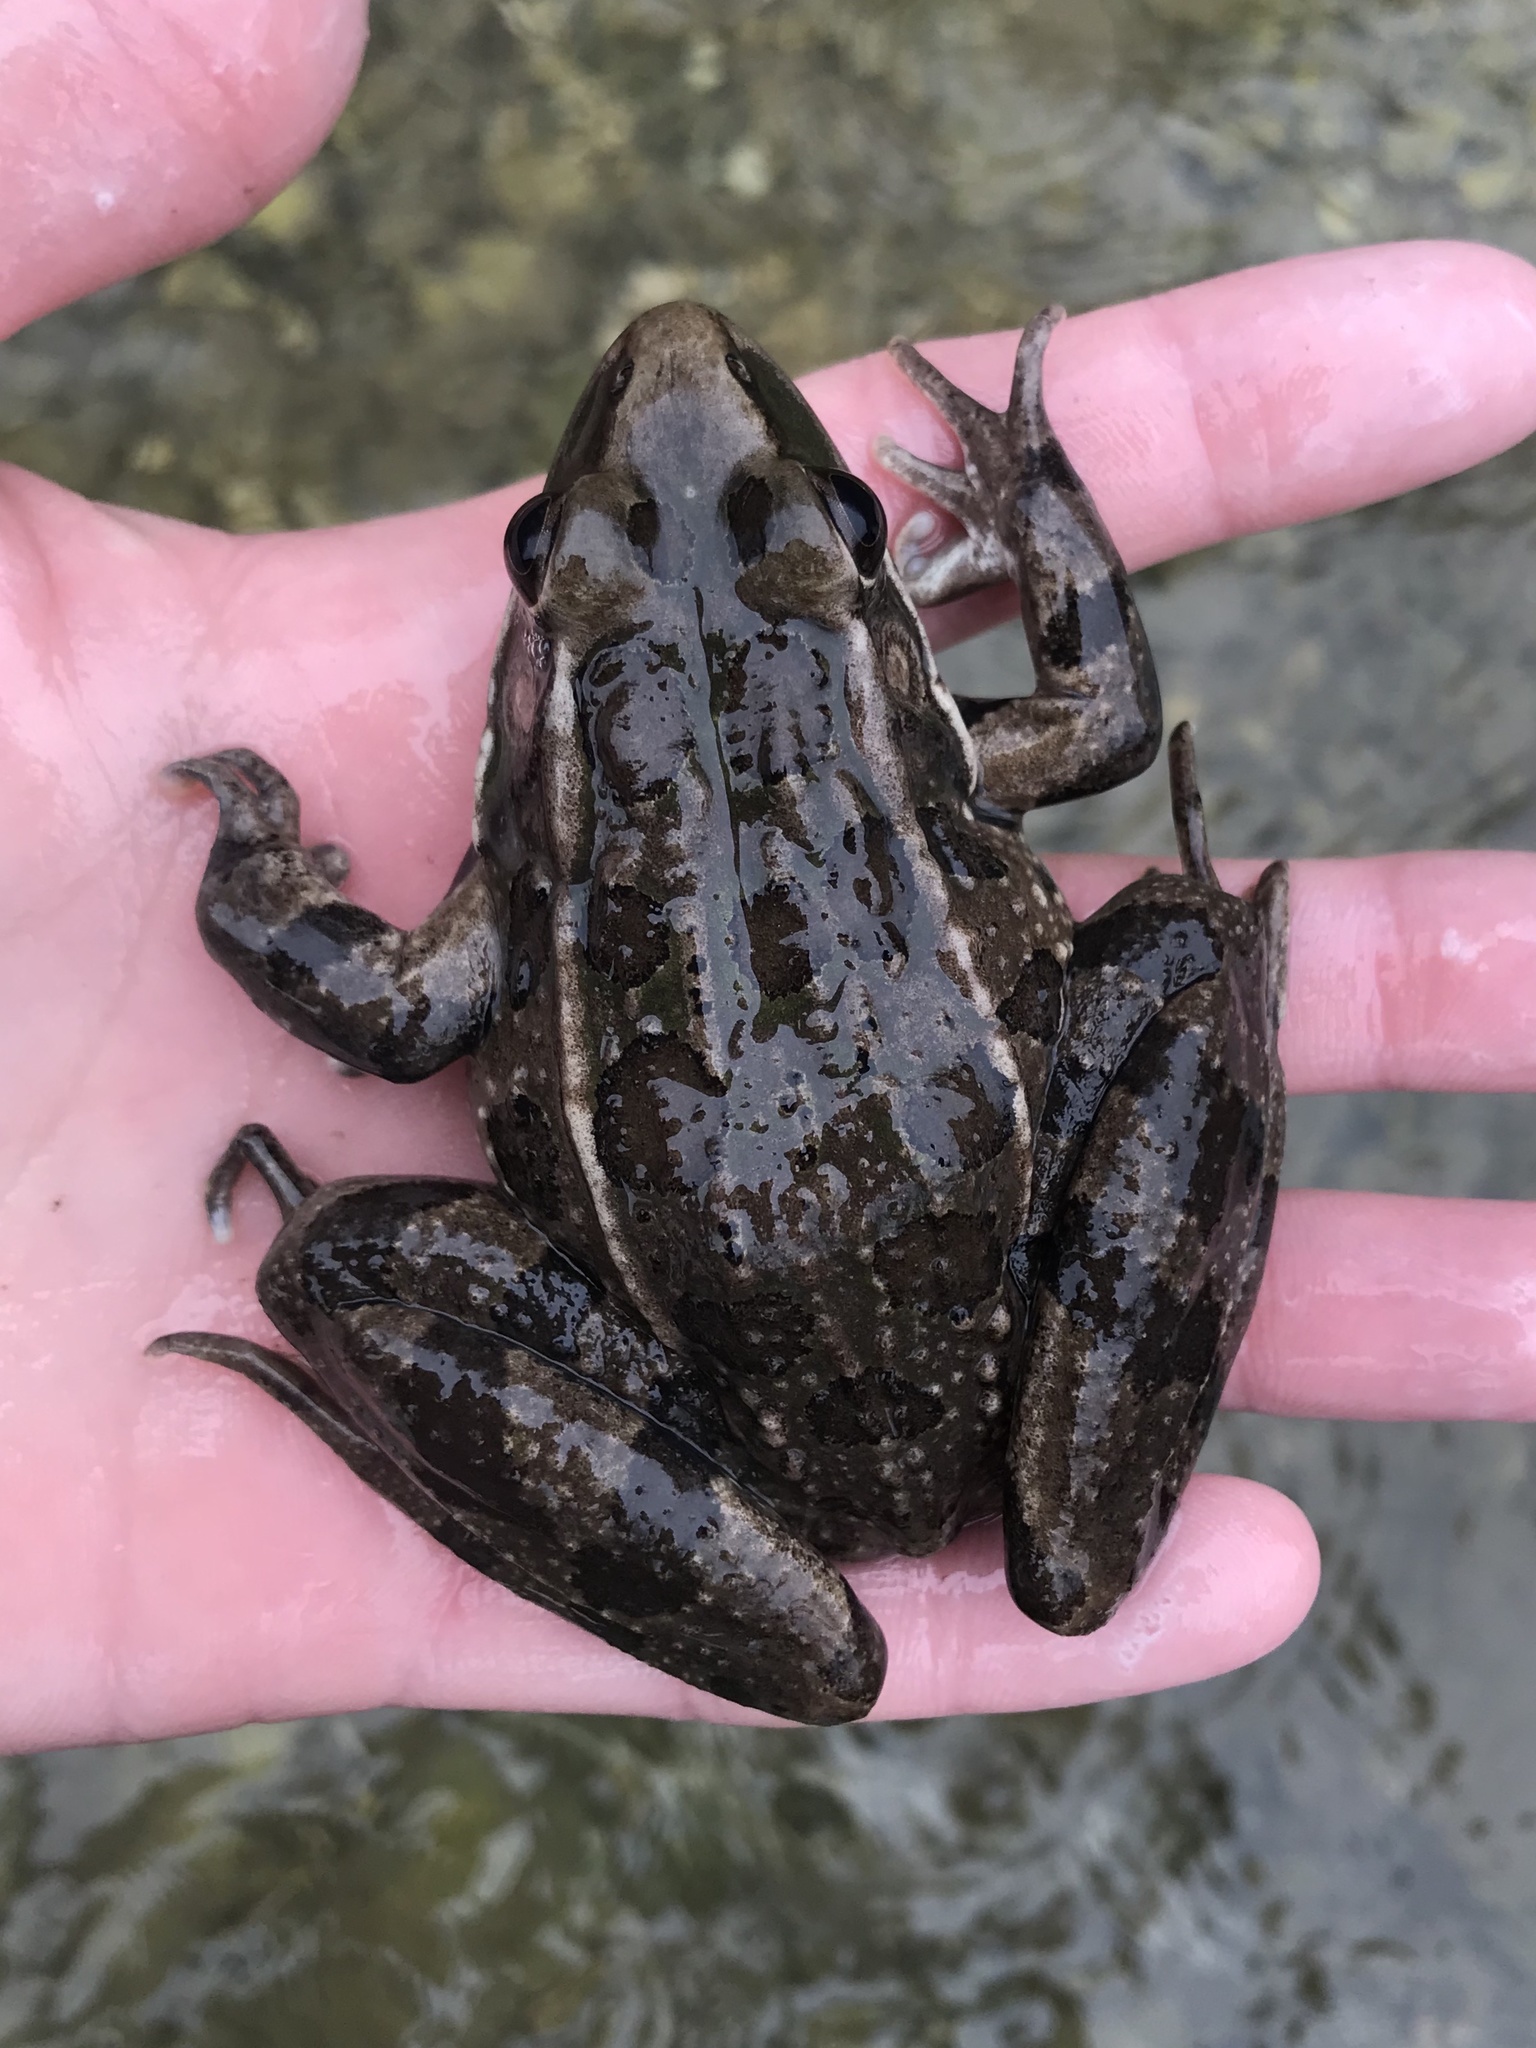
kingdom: Animalia
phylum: Chordata
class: Amphibia
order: Anura
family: Ranidae
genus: Lithobates
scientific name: Lithobates berlandieri
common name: Rio grande leopard frog
